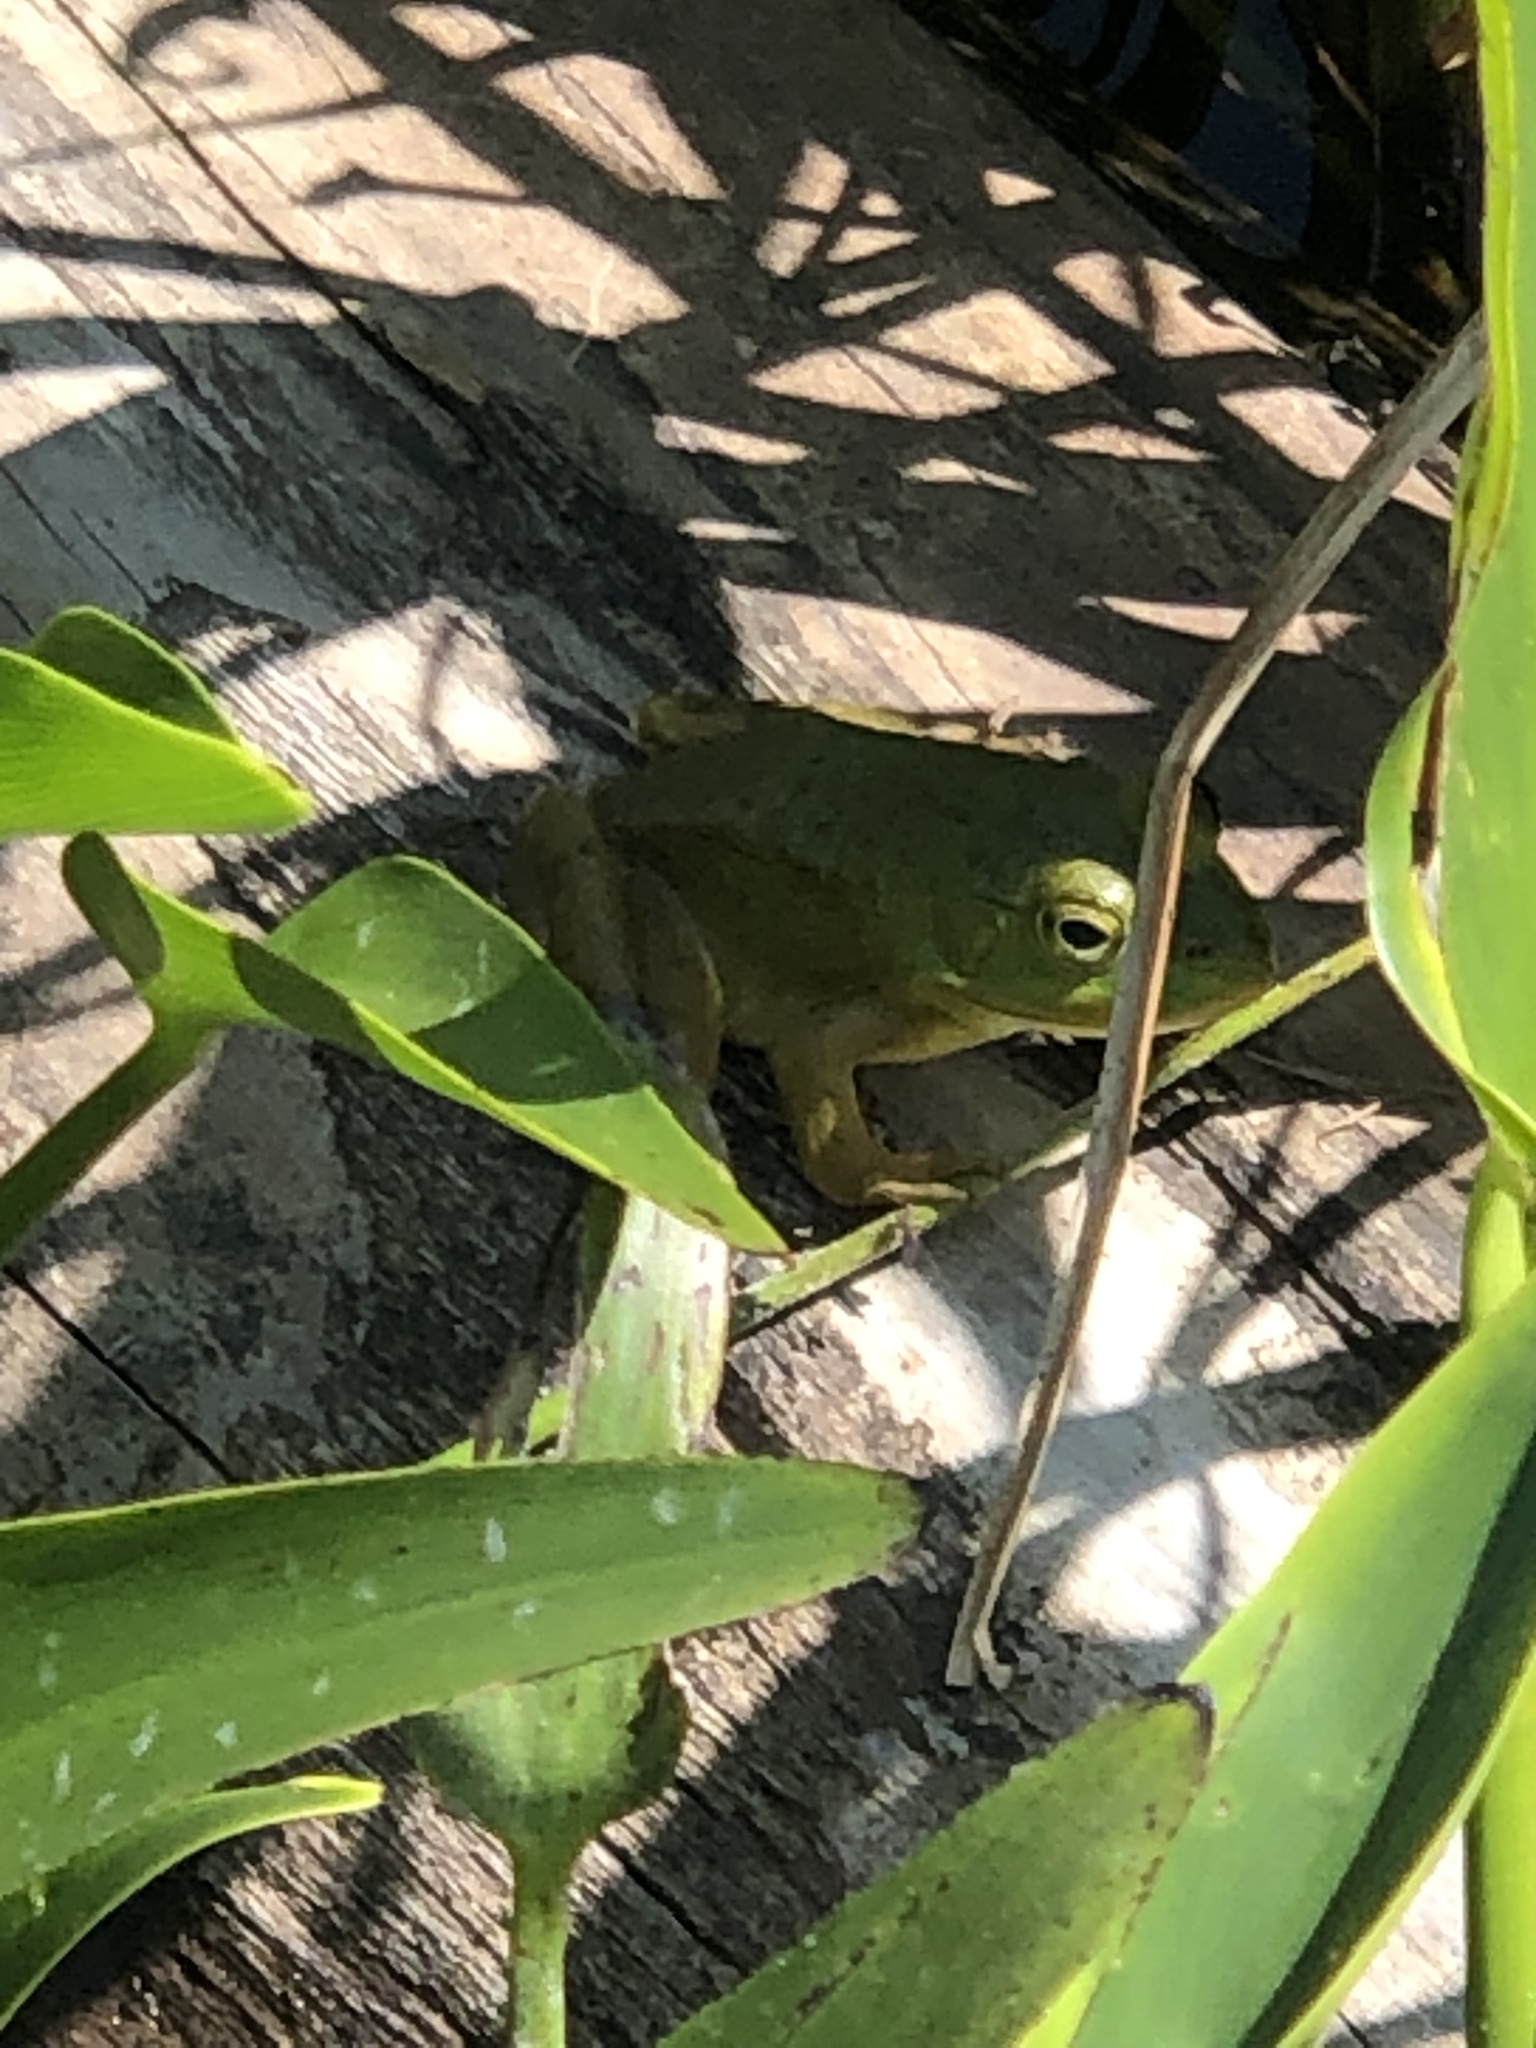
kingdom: Animalia
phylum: Chordata
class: Amphibia
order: Anura
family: Ranidae
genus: Lithobates
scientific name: Lithobates catesbeianus
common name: American bullfrog
